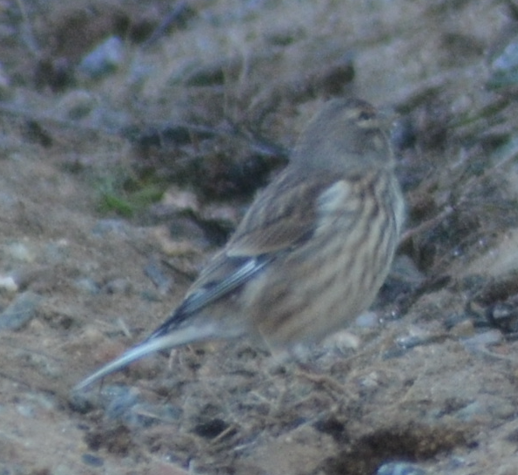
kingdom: Animalia
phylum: Chordata
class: Aves
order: Passeriformes
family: Fringillidae
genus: Linaria
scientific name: Linaria cannabina
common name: Common linnet
